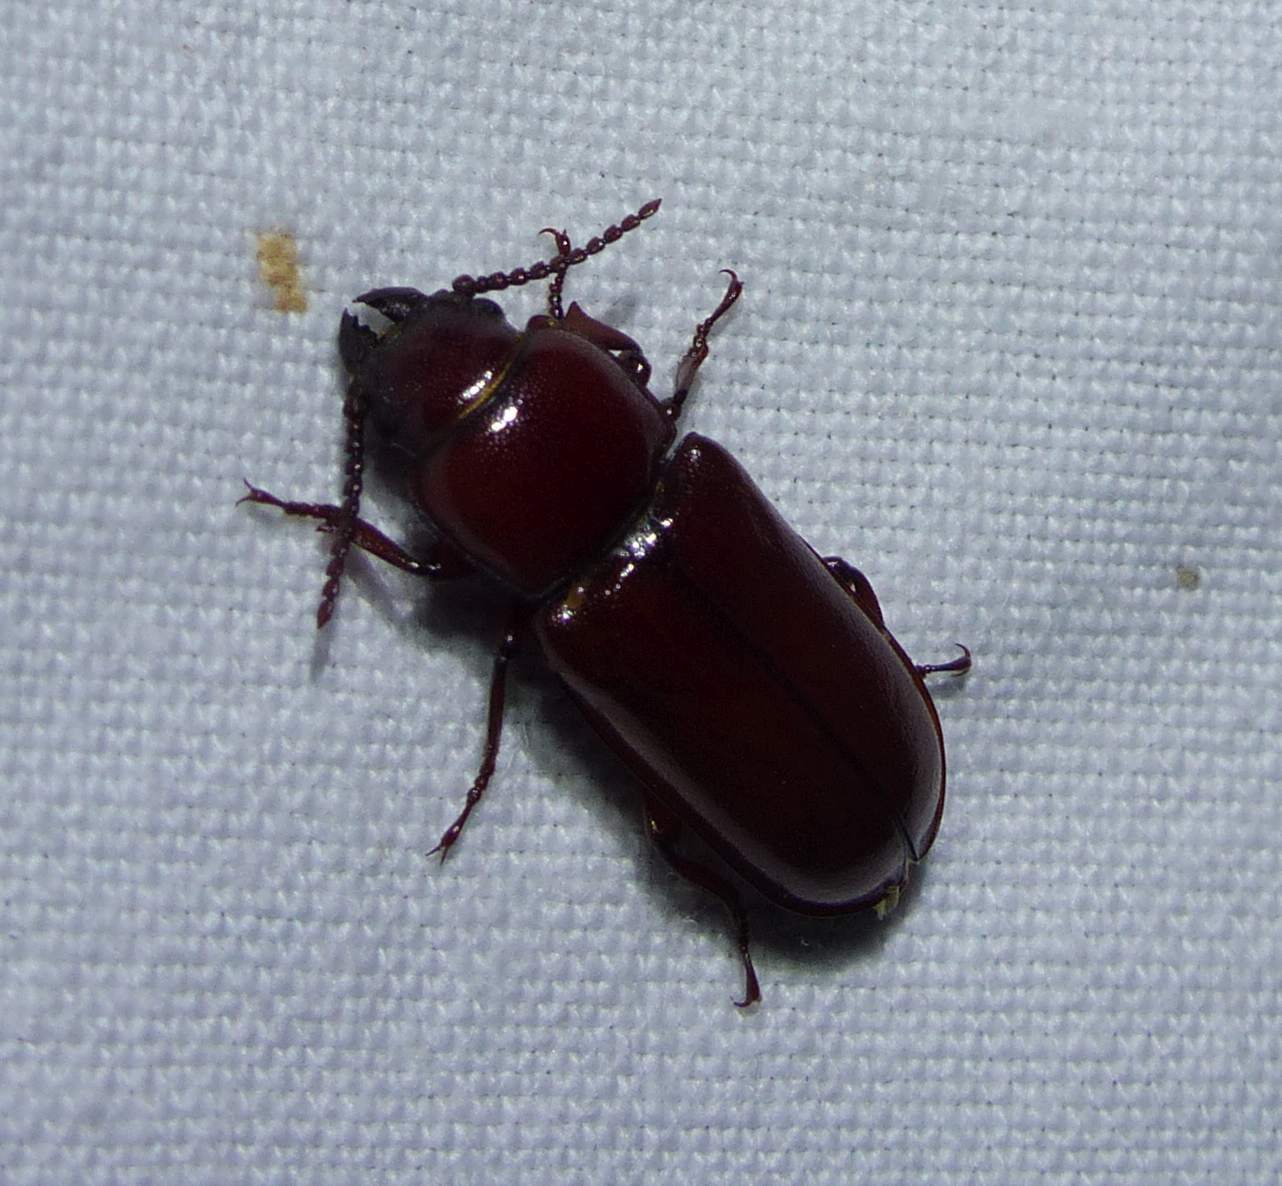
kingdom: Animalia
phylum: Arthropoda
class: Insecta
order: Coleoptera
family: Cerambycidae
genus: Neandra
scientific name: Neandra brunnea
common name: Pole borer
